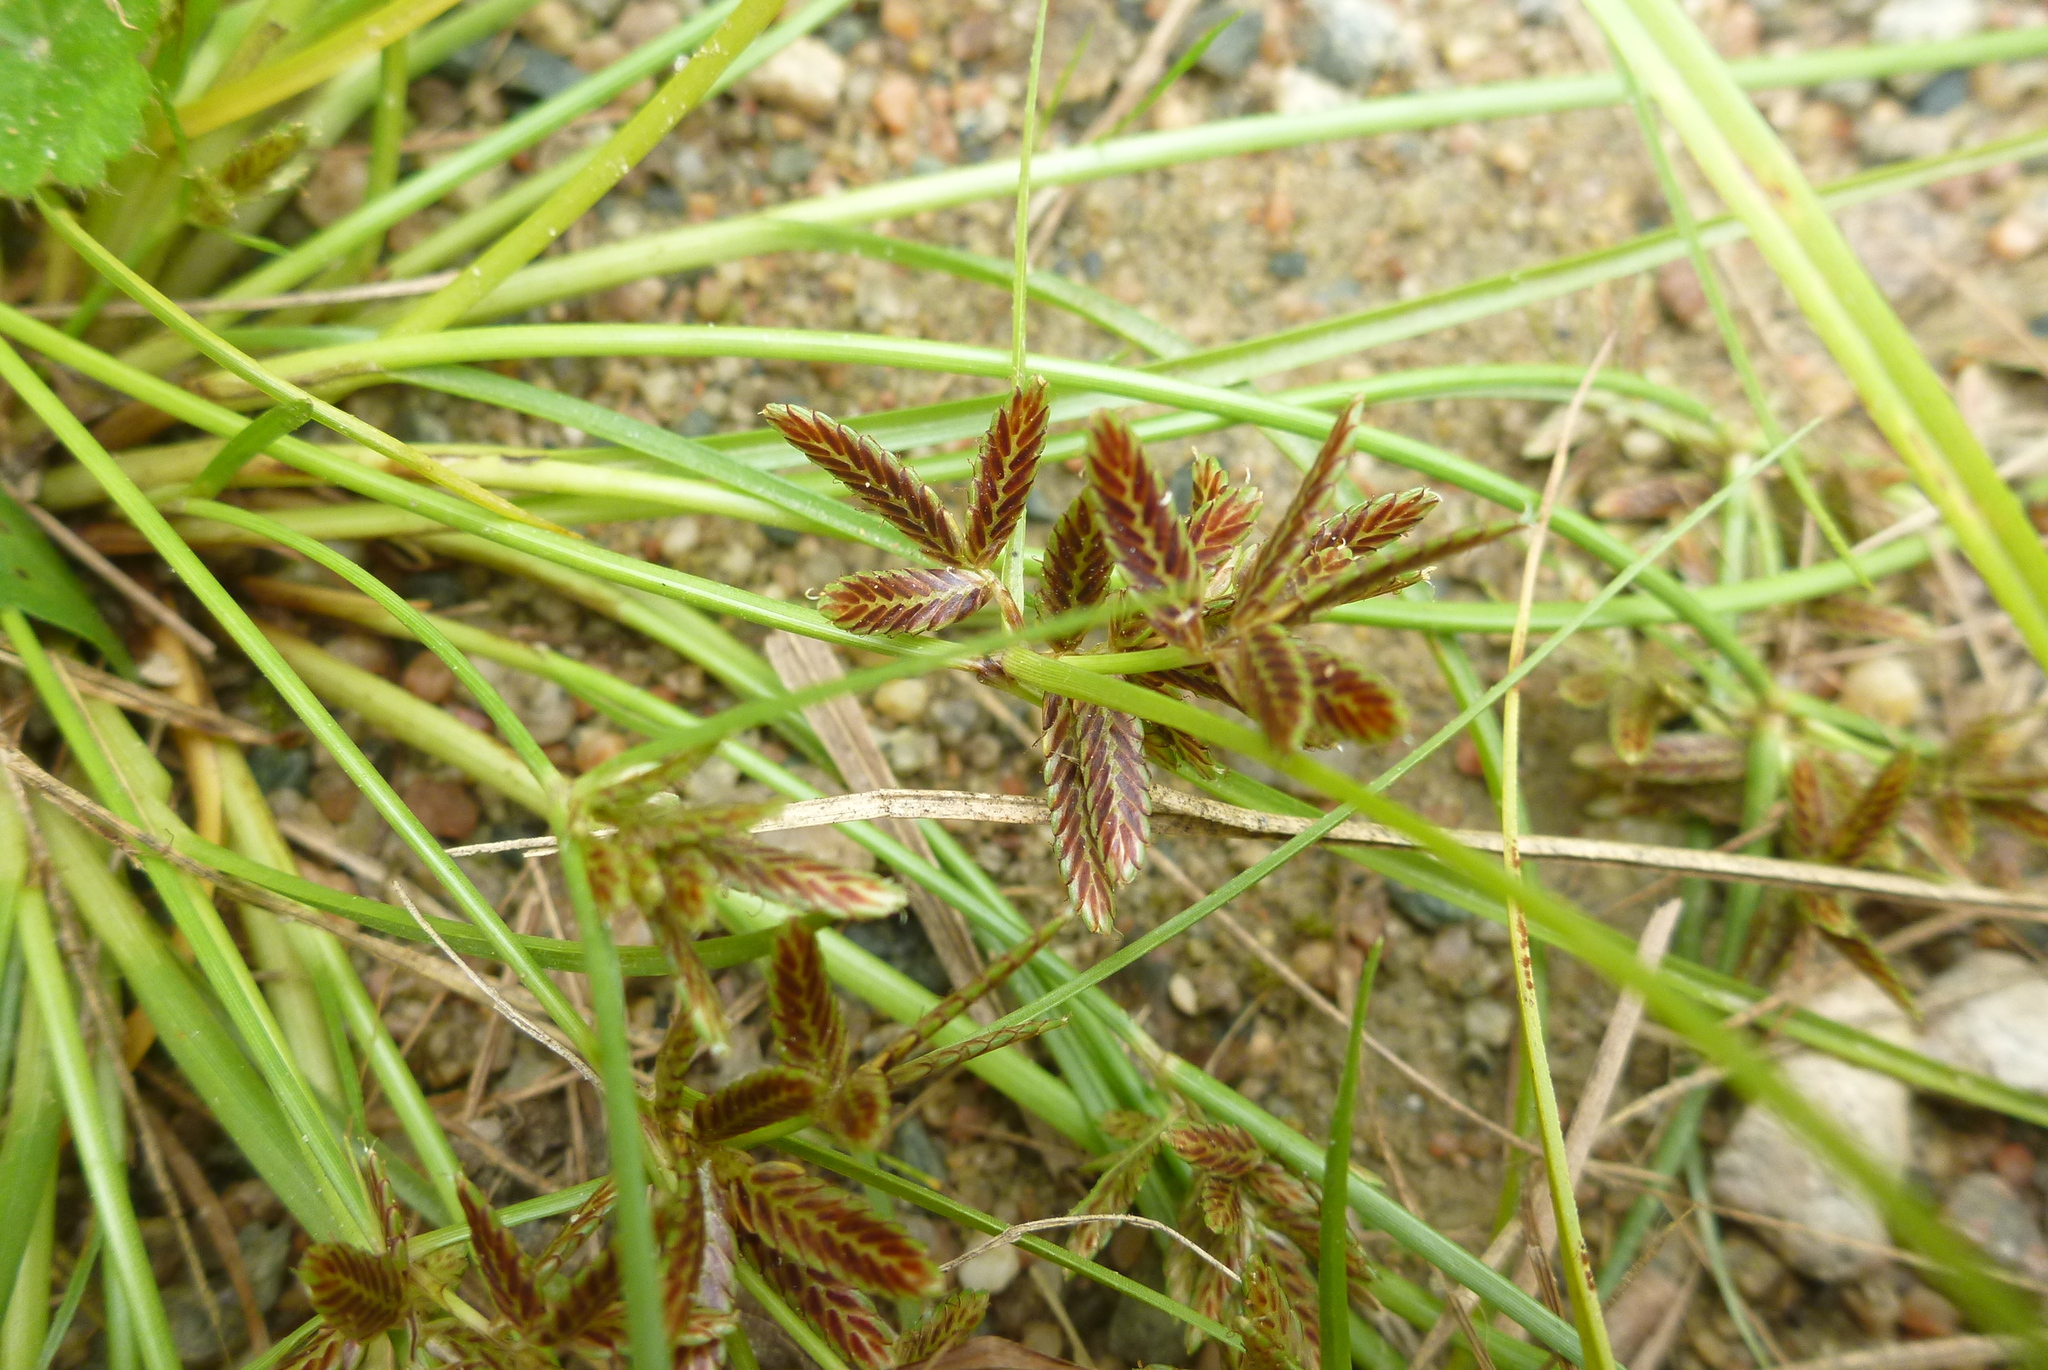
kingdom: Plantae
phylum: Tracheophyta
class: Liliopsida
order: Poales
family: Cyperaceae
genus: Cyperus
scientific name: Cyperus bipartitus
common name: Brook flatsedge
